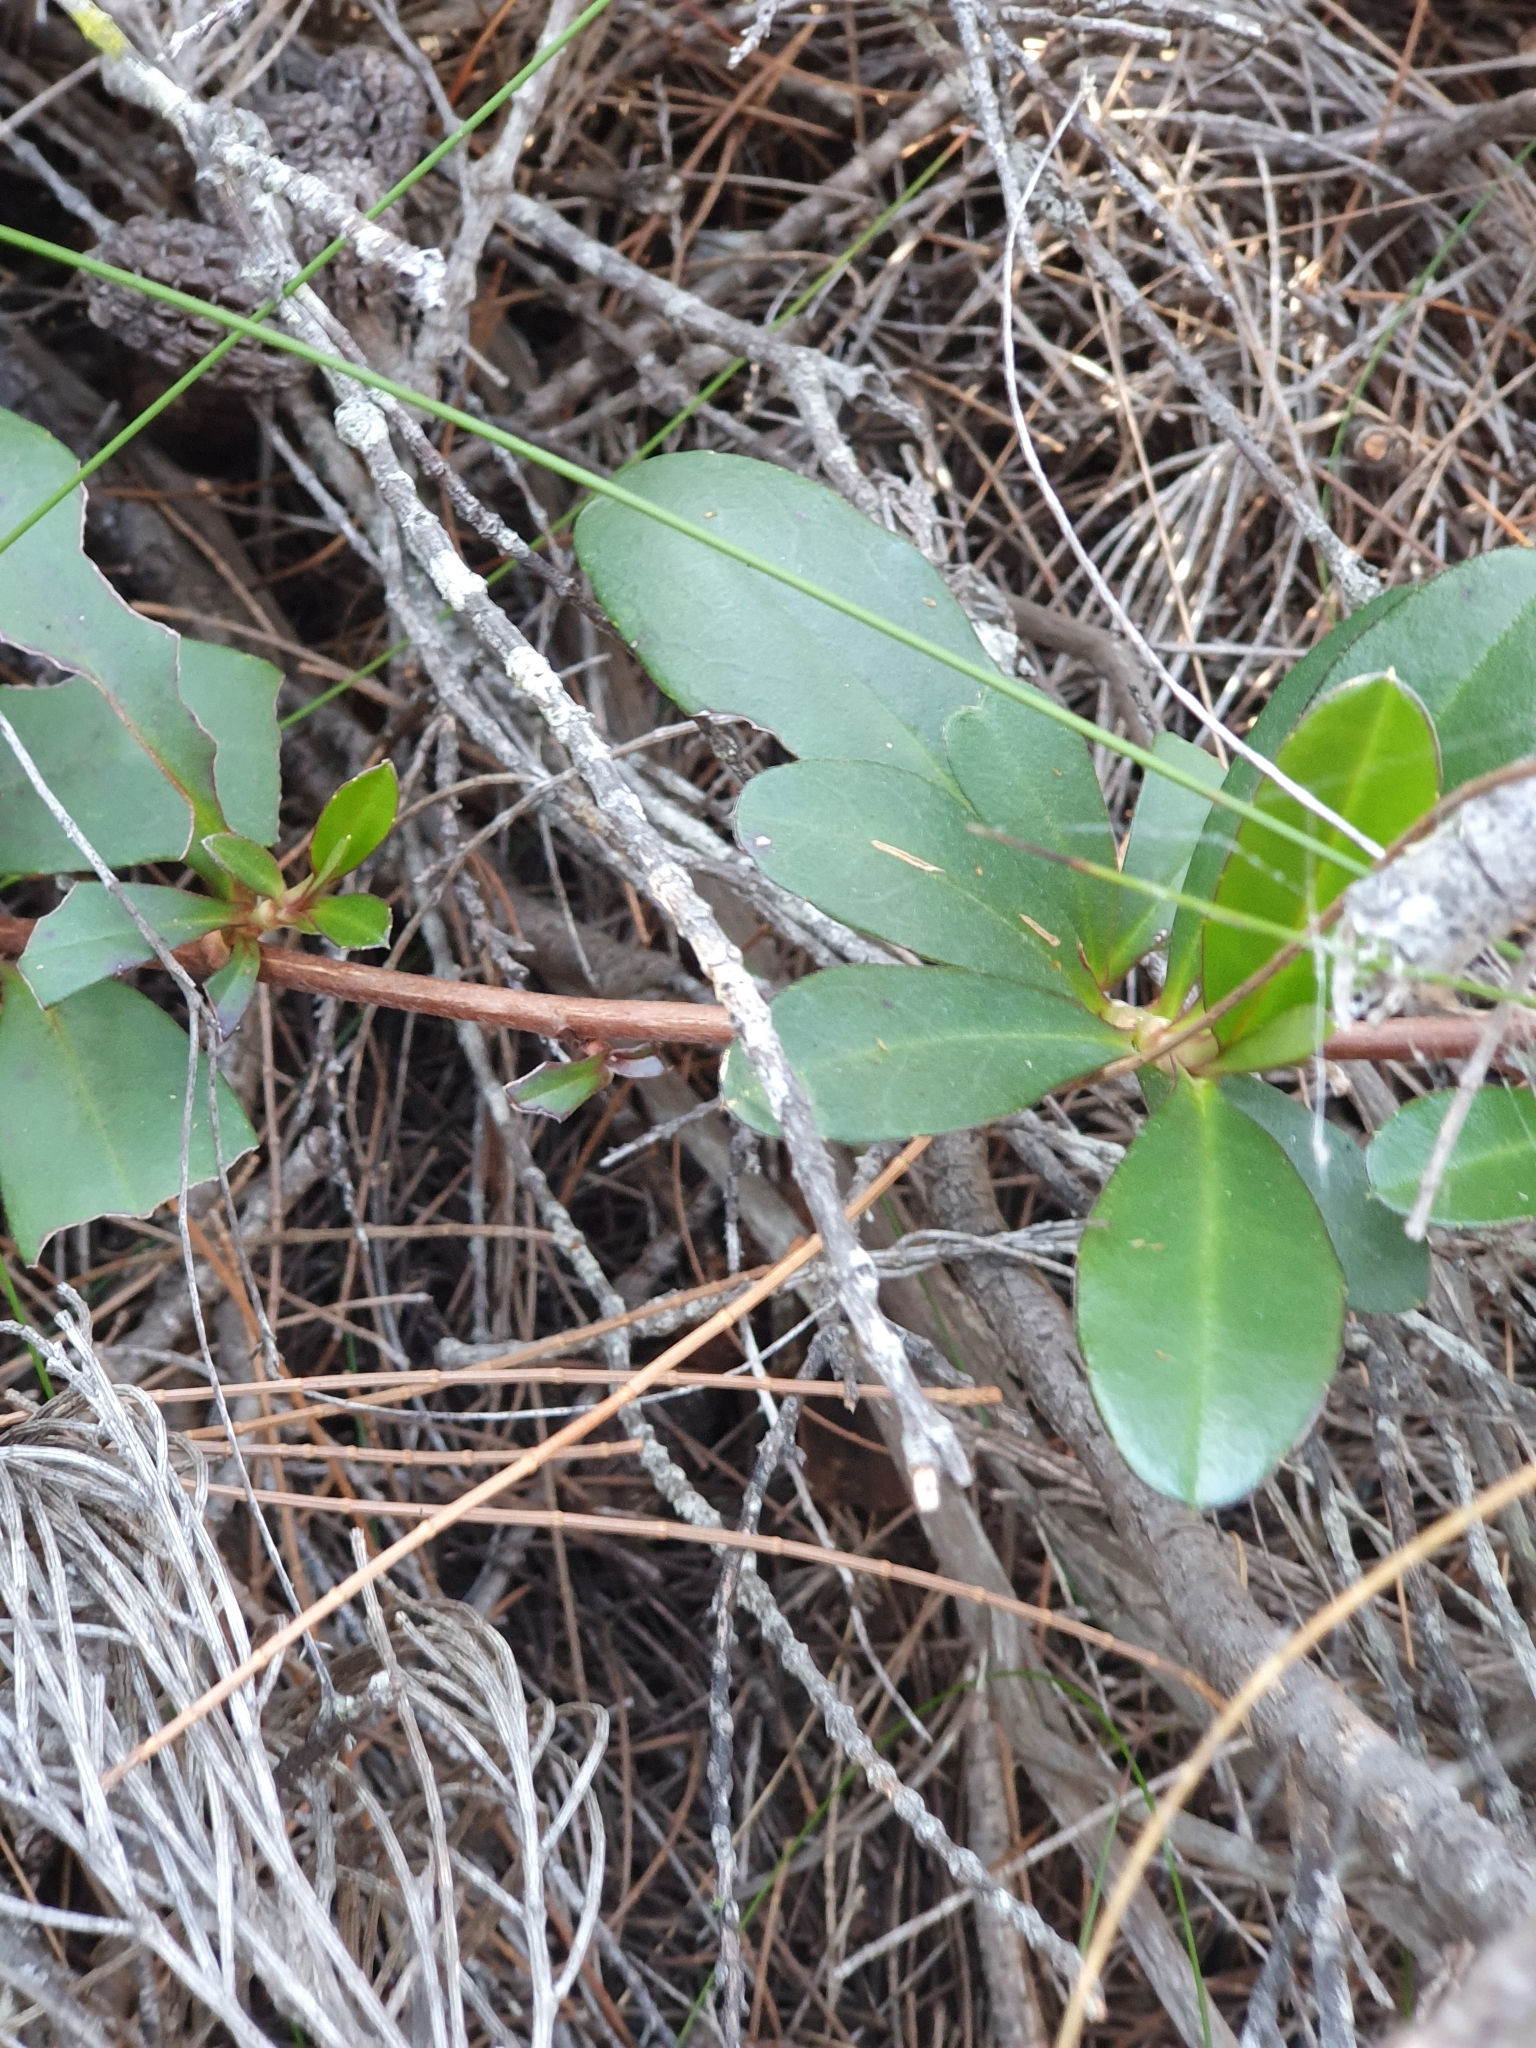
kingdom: Plantae
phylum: Tracheophyta
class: Magnoliopsida
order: Dilleniales
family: Dilleniaceae
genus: Hibbertia
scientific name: Hibbertia scandens
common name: Climbing guinea-flower
